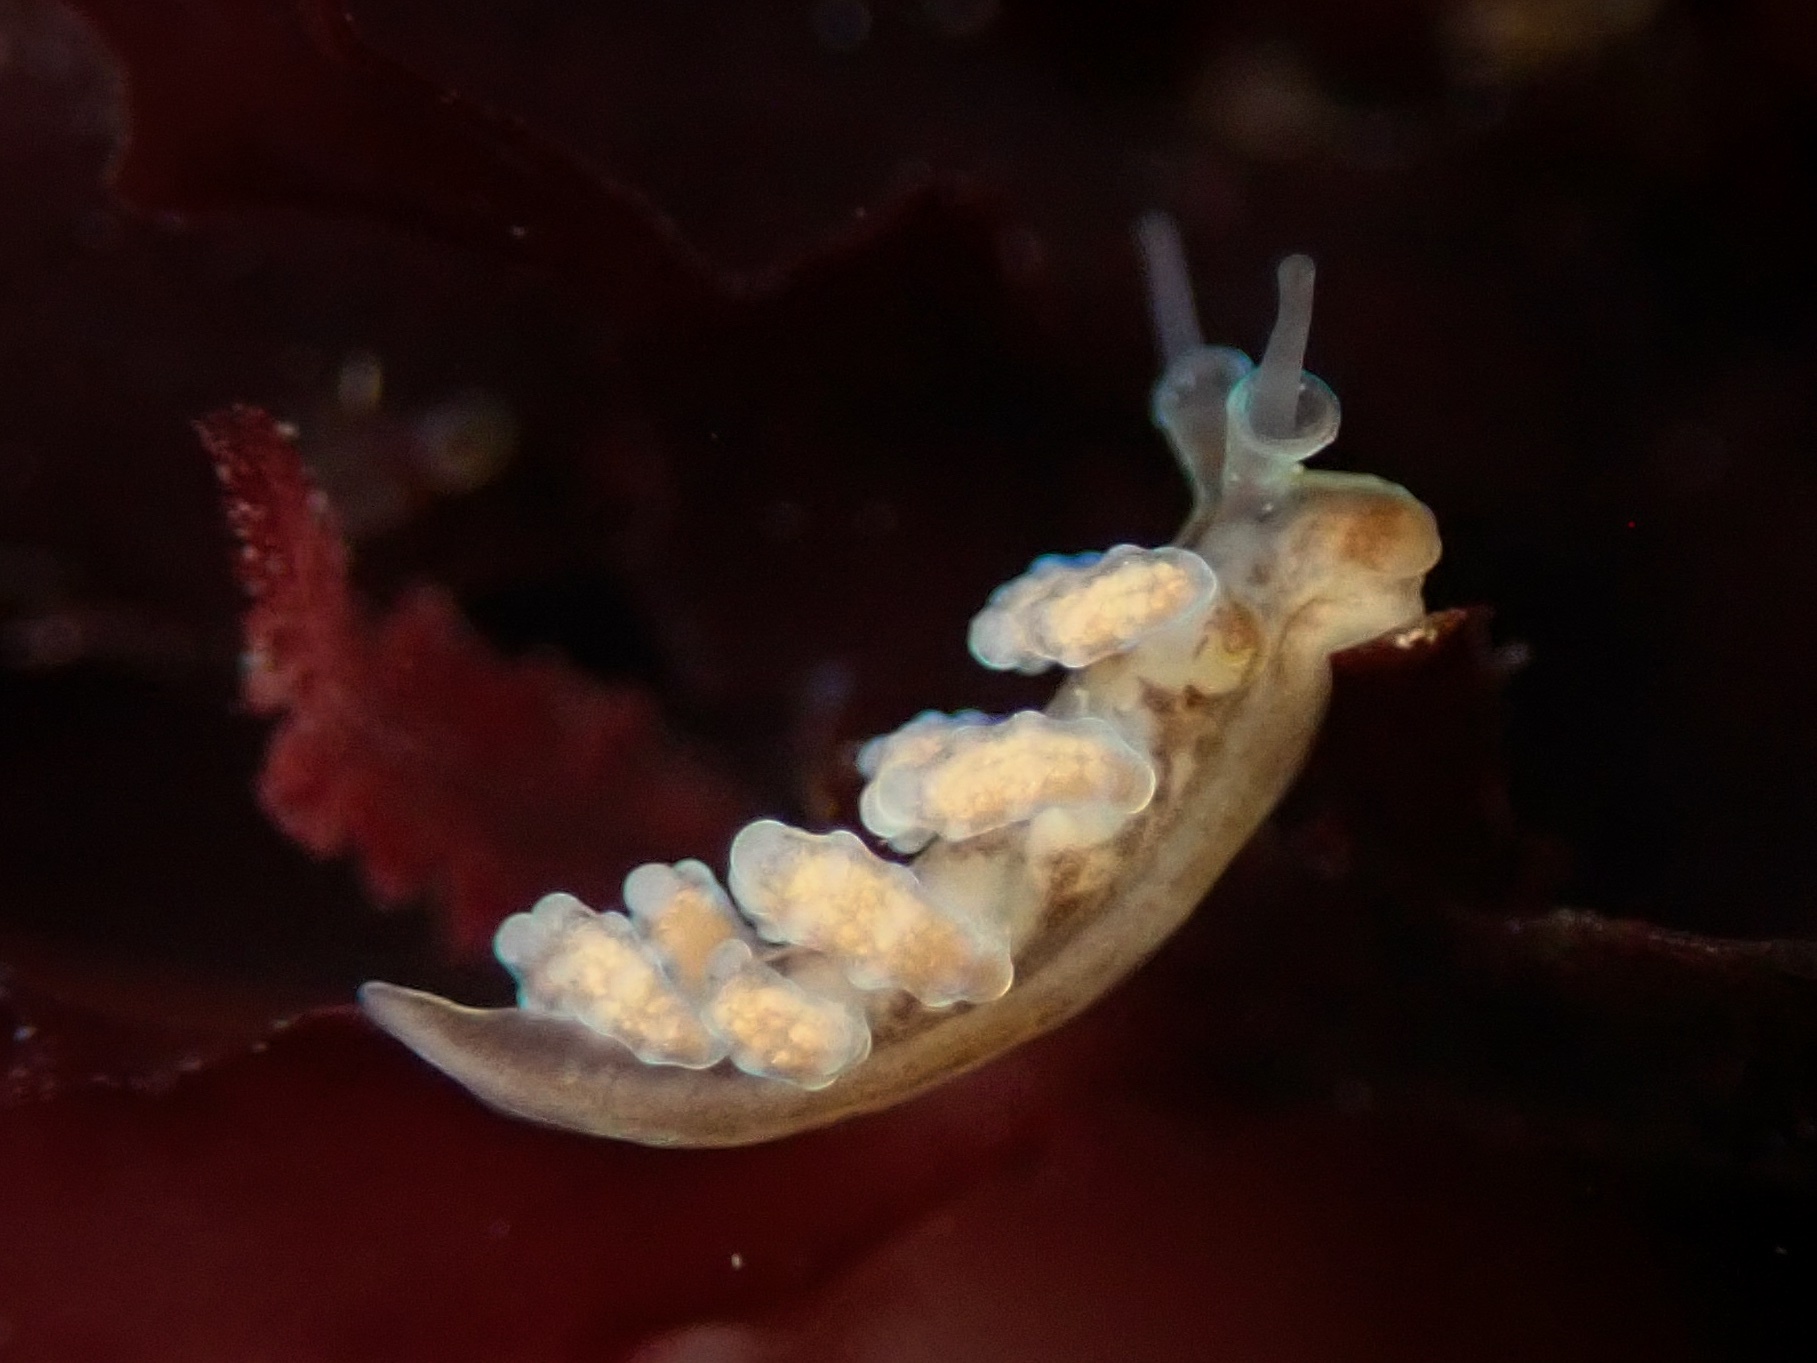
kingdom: Animalia
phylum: Mollusca
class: Gastropoda
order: Nudibranchia
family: Dotidae
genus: Doto
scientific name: Doto columbiana
